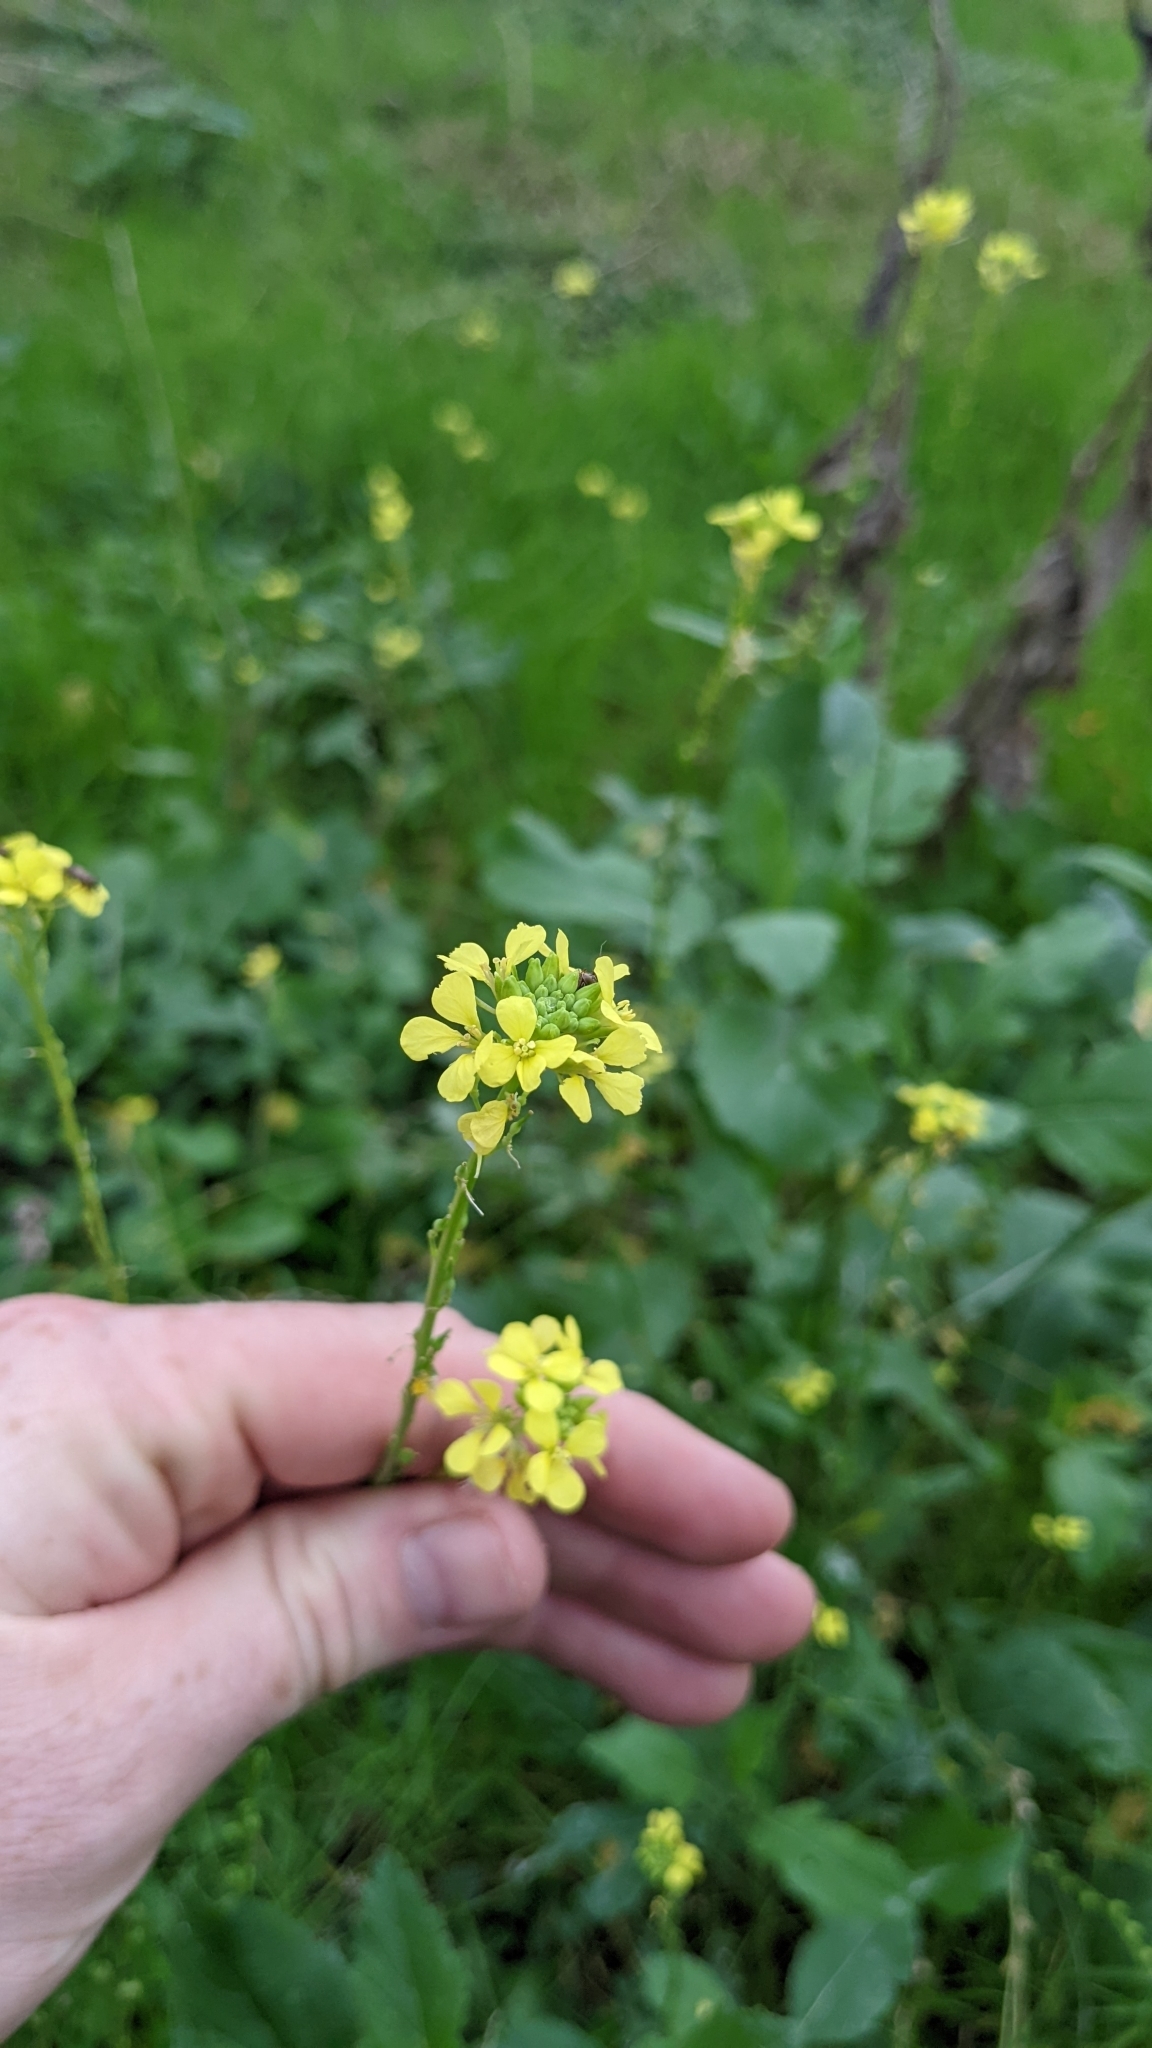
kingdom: Plantae
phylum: Tracheophyta
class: Magnoliopsida
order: Brassicales
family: Brassicaceae
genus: Rapistrum
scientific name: Rapistrum rugosum
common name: Annual bastardcabbage
